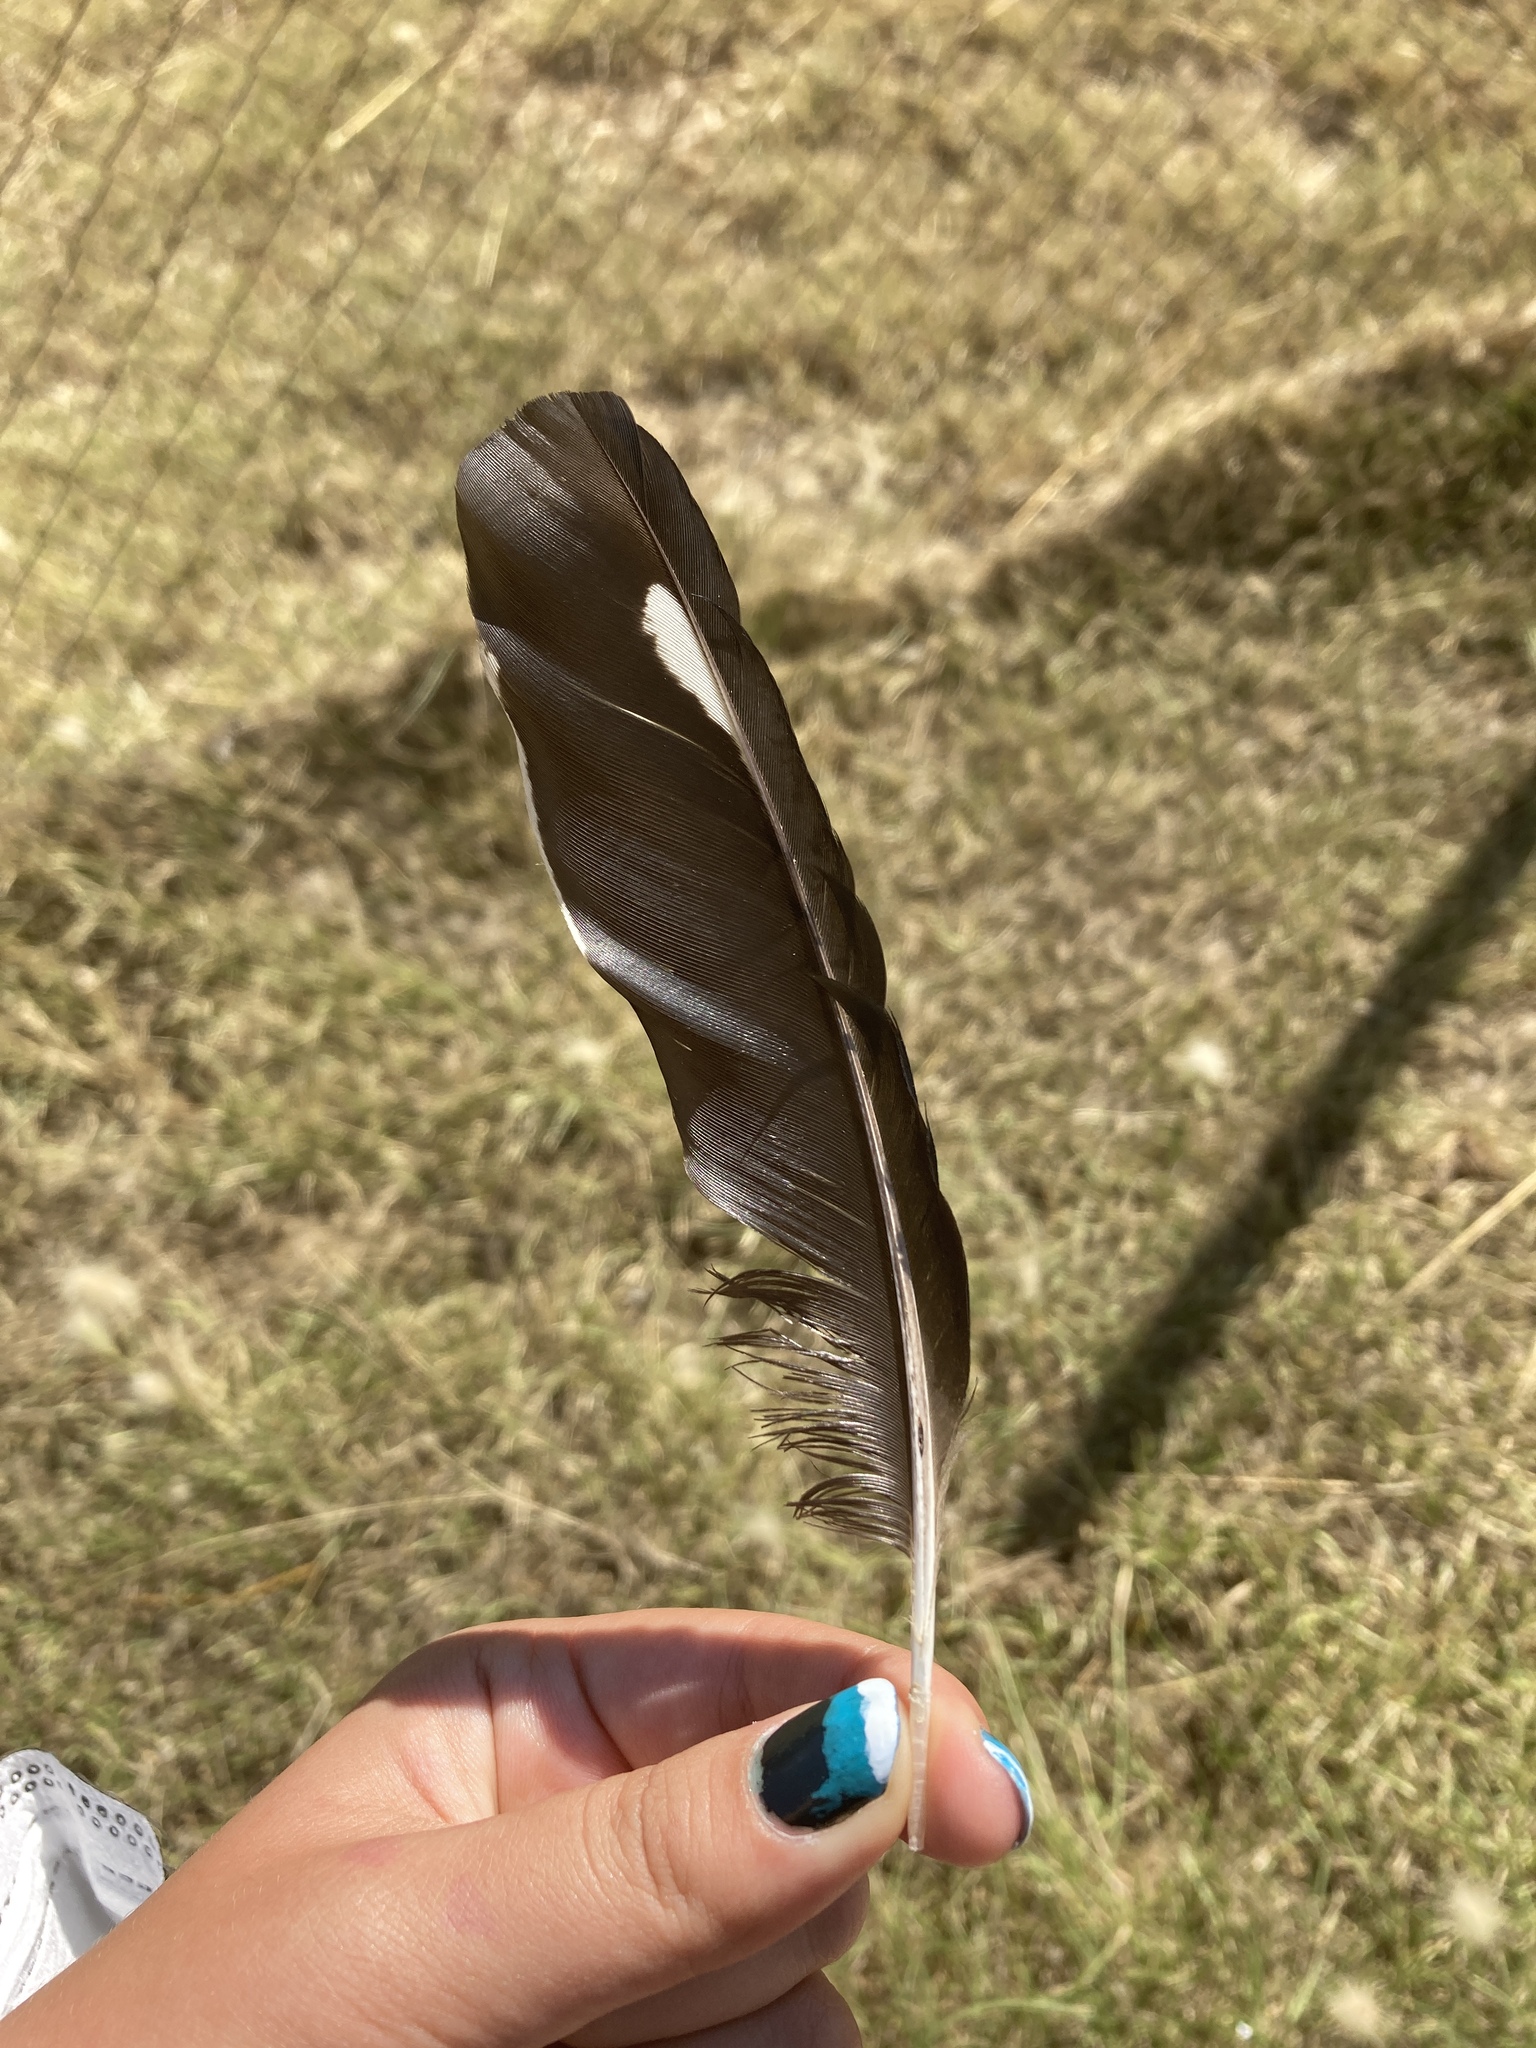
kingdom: Animalia
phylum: Chordata
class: Aves
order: Passeriformes
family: Corvidae
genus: Pica
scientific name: Pica pica
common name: Eurasian magpie
